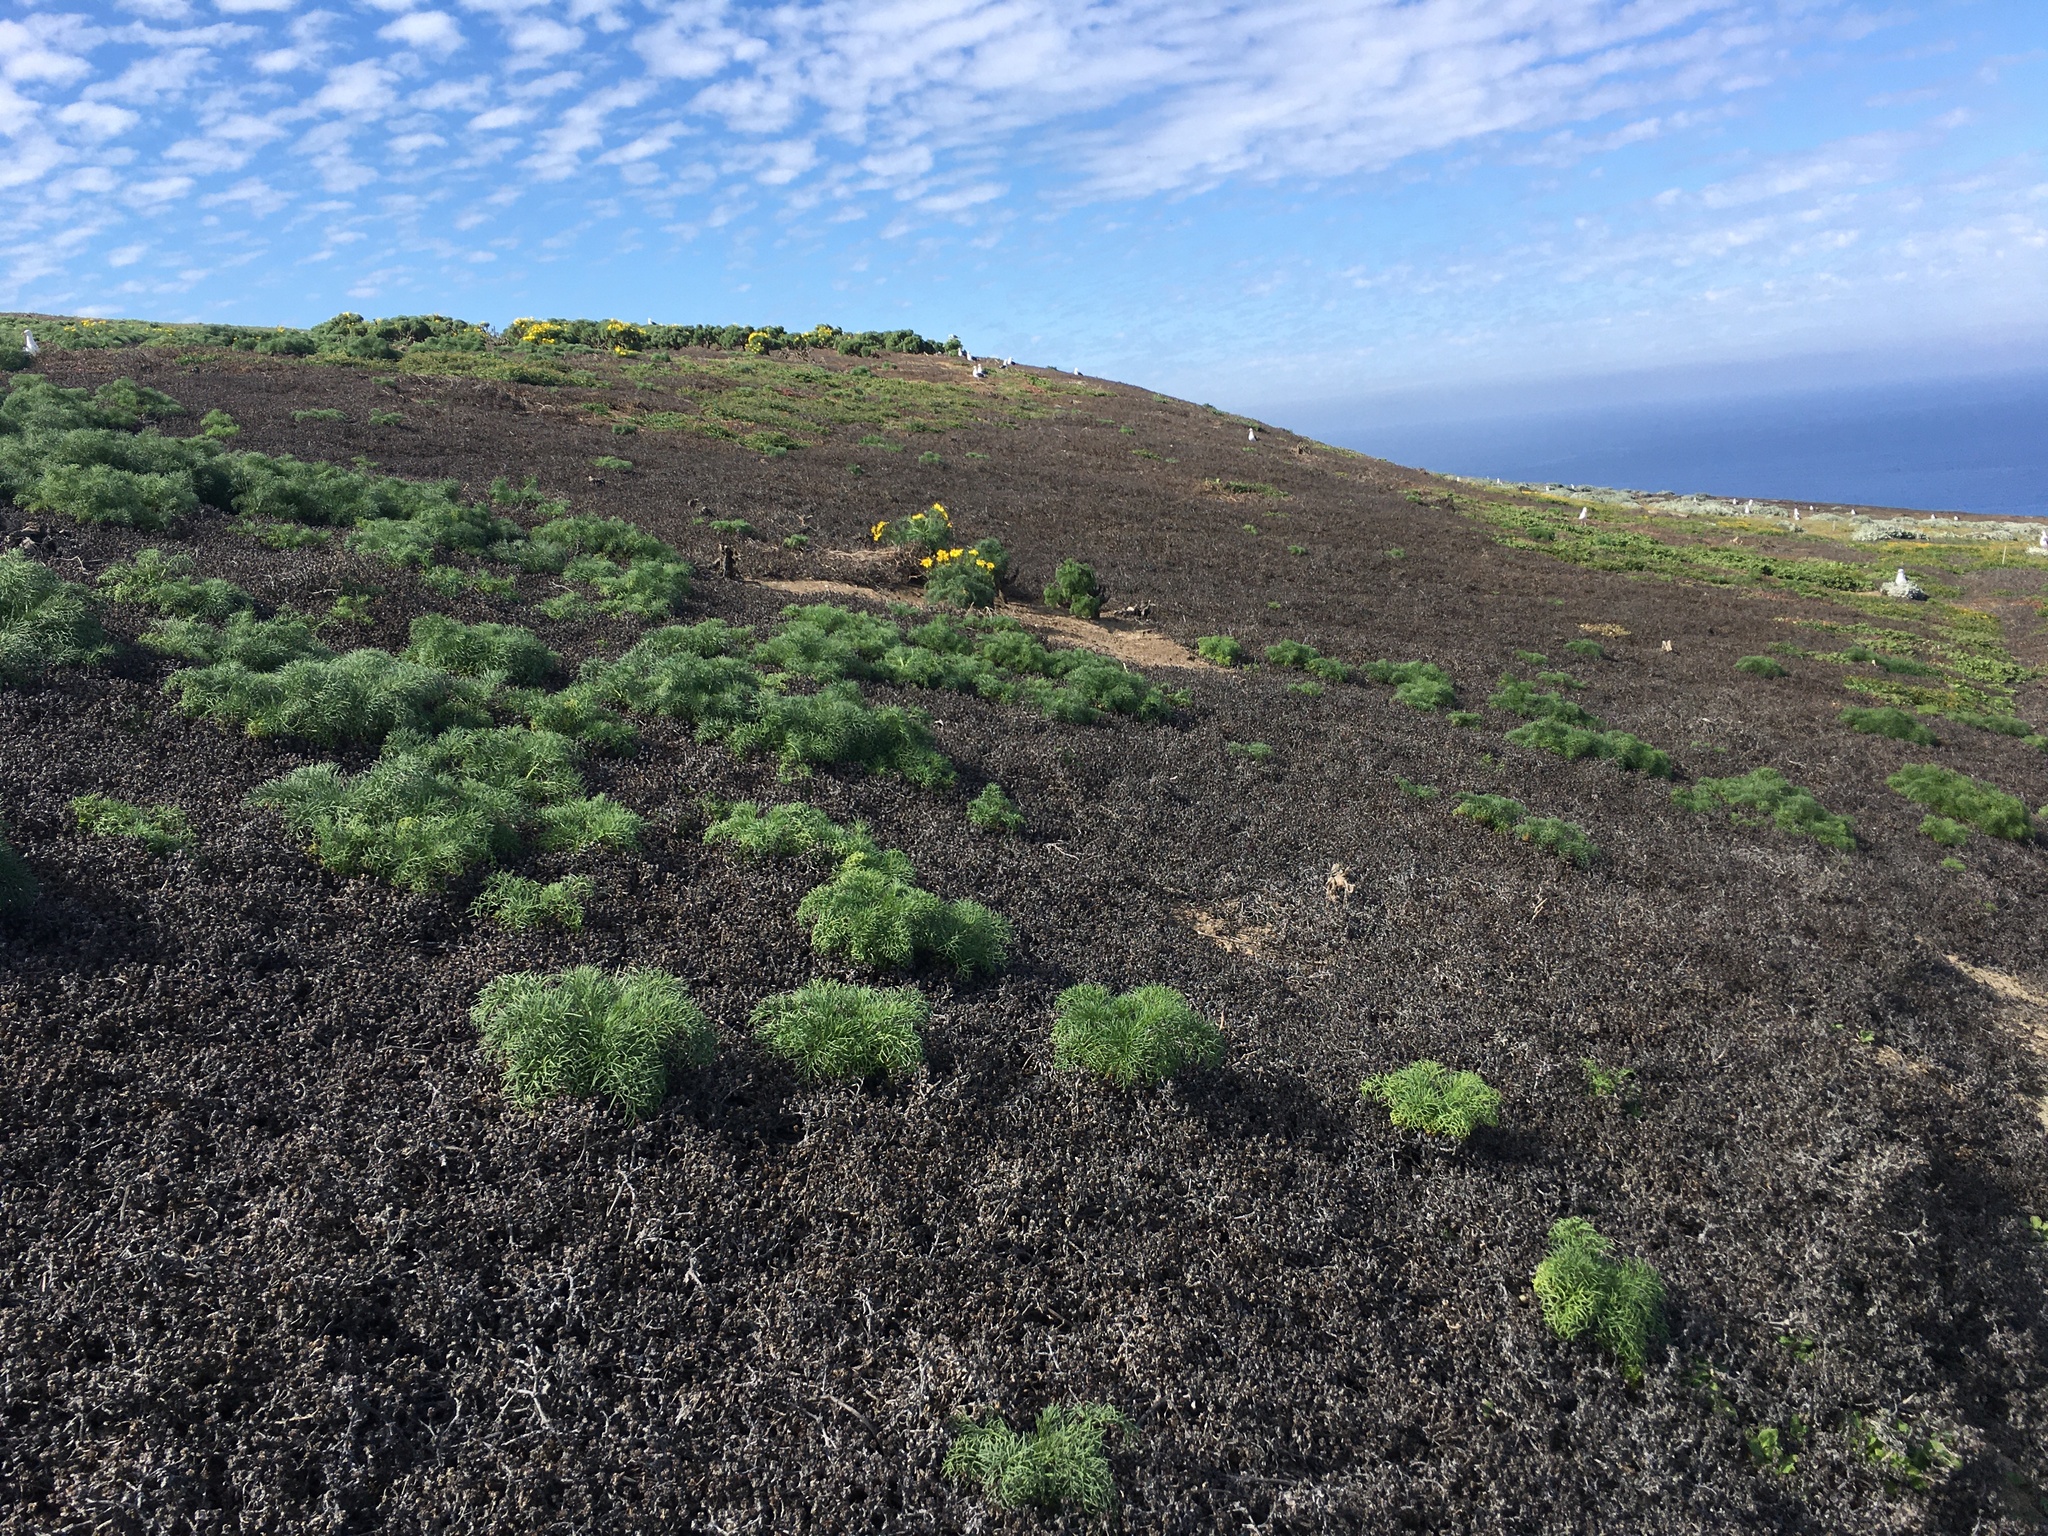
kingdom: Plantae
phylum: Tracheophyta
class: Magnoliopsida
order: Asterales
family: Asteraceae
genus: Coreopsis
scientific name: Coreopsis gigantea
